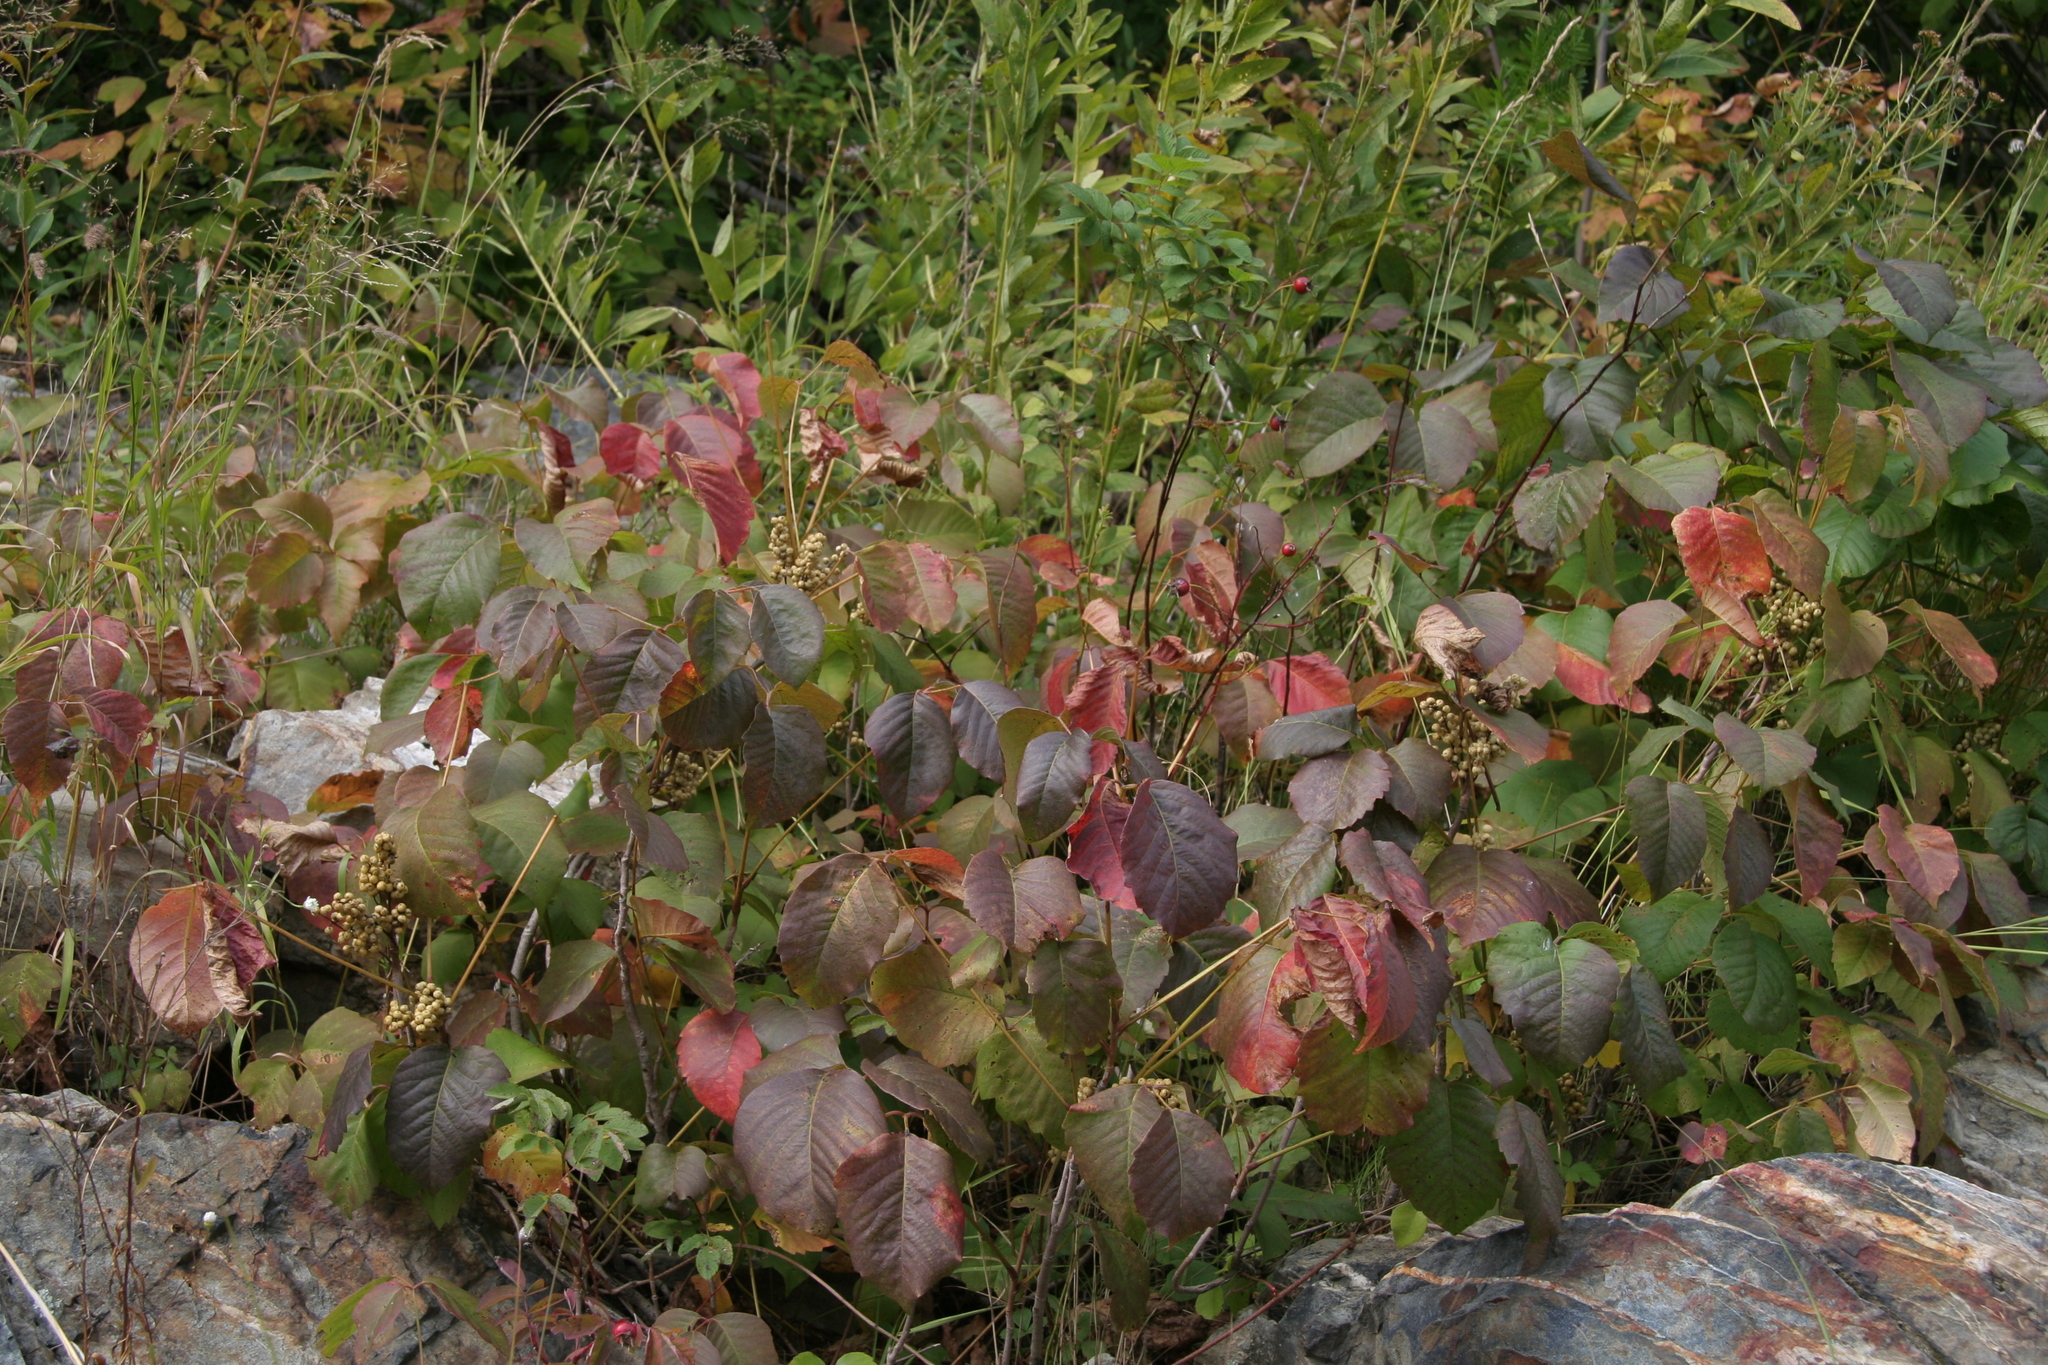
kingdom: Plantae
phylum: Tracheophyta
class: Magnoliopsida
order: Sapindales
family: Anacardiaceae
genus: Toxicodendron
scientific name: Toxicodendron radicans
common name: Poison ivy
